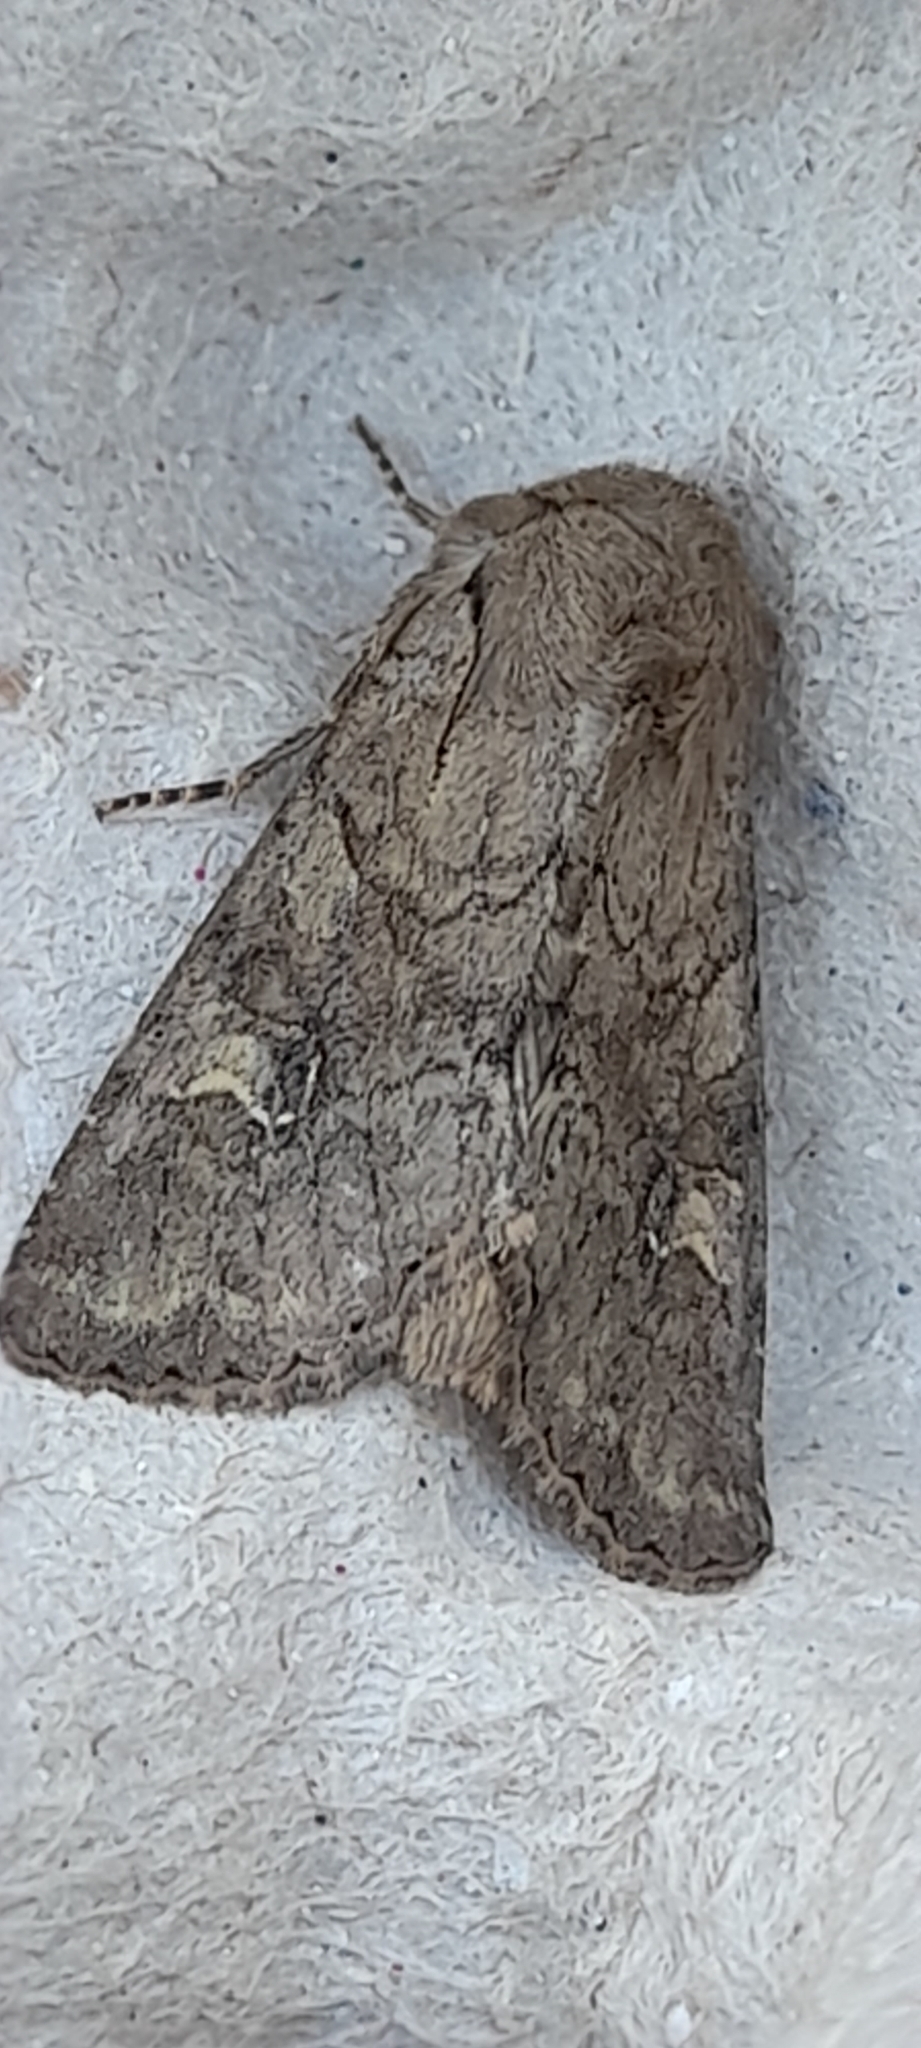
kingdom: Animalia
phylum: Arthropoda
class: Insecta
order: Lepidoptera
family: Noctuidae
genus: Apamea
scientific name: Apamea sordens
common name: Rustic shoulder-knot
